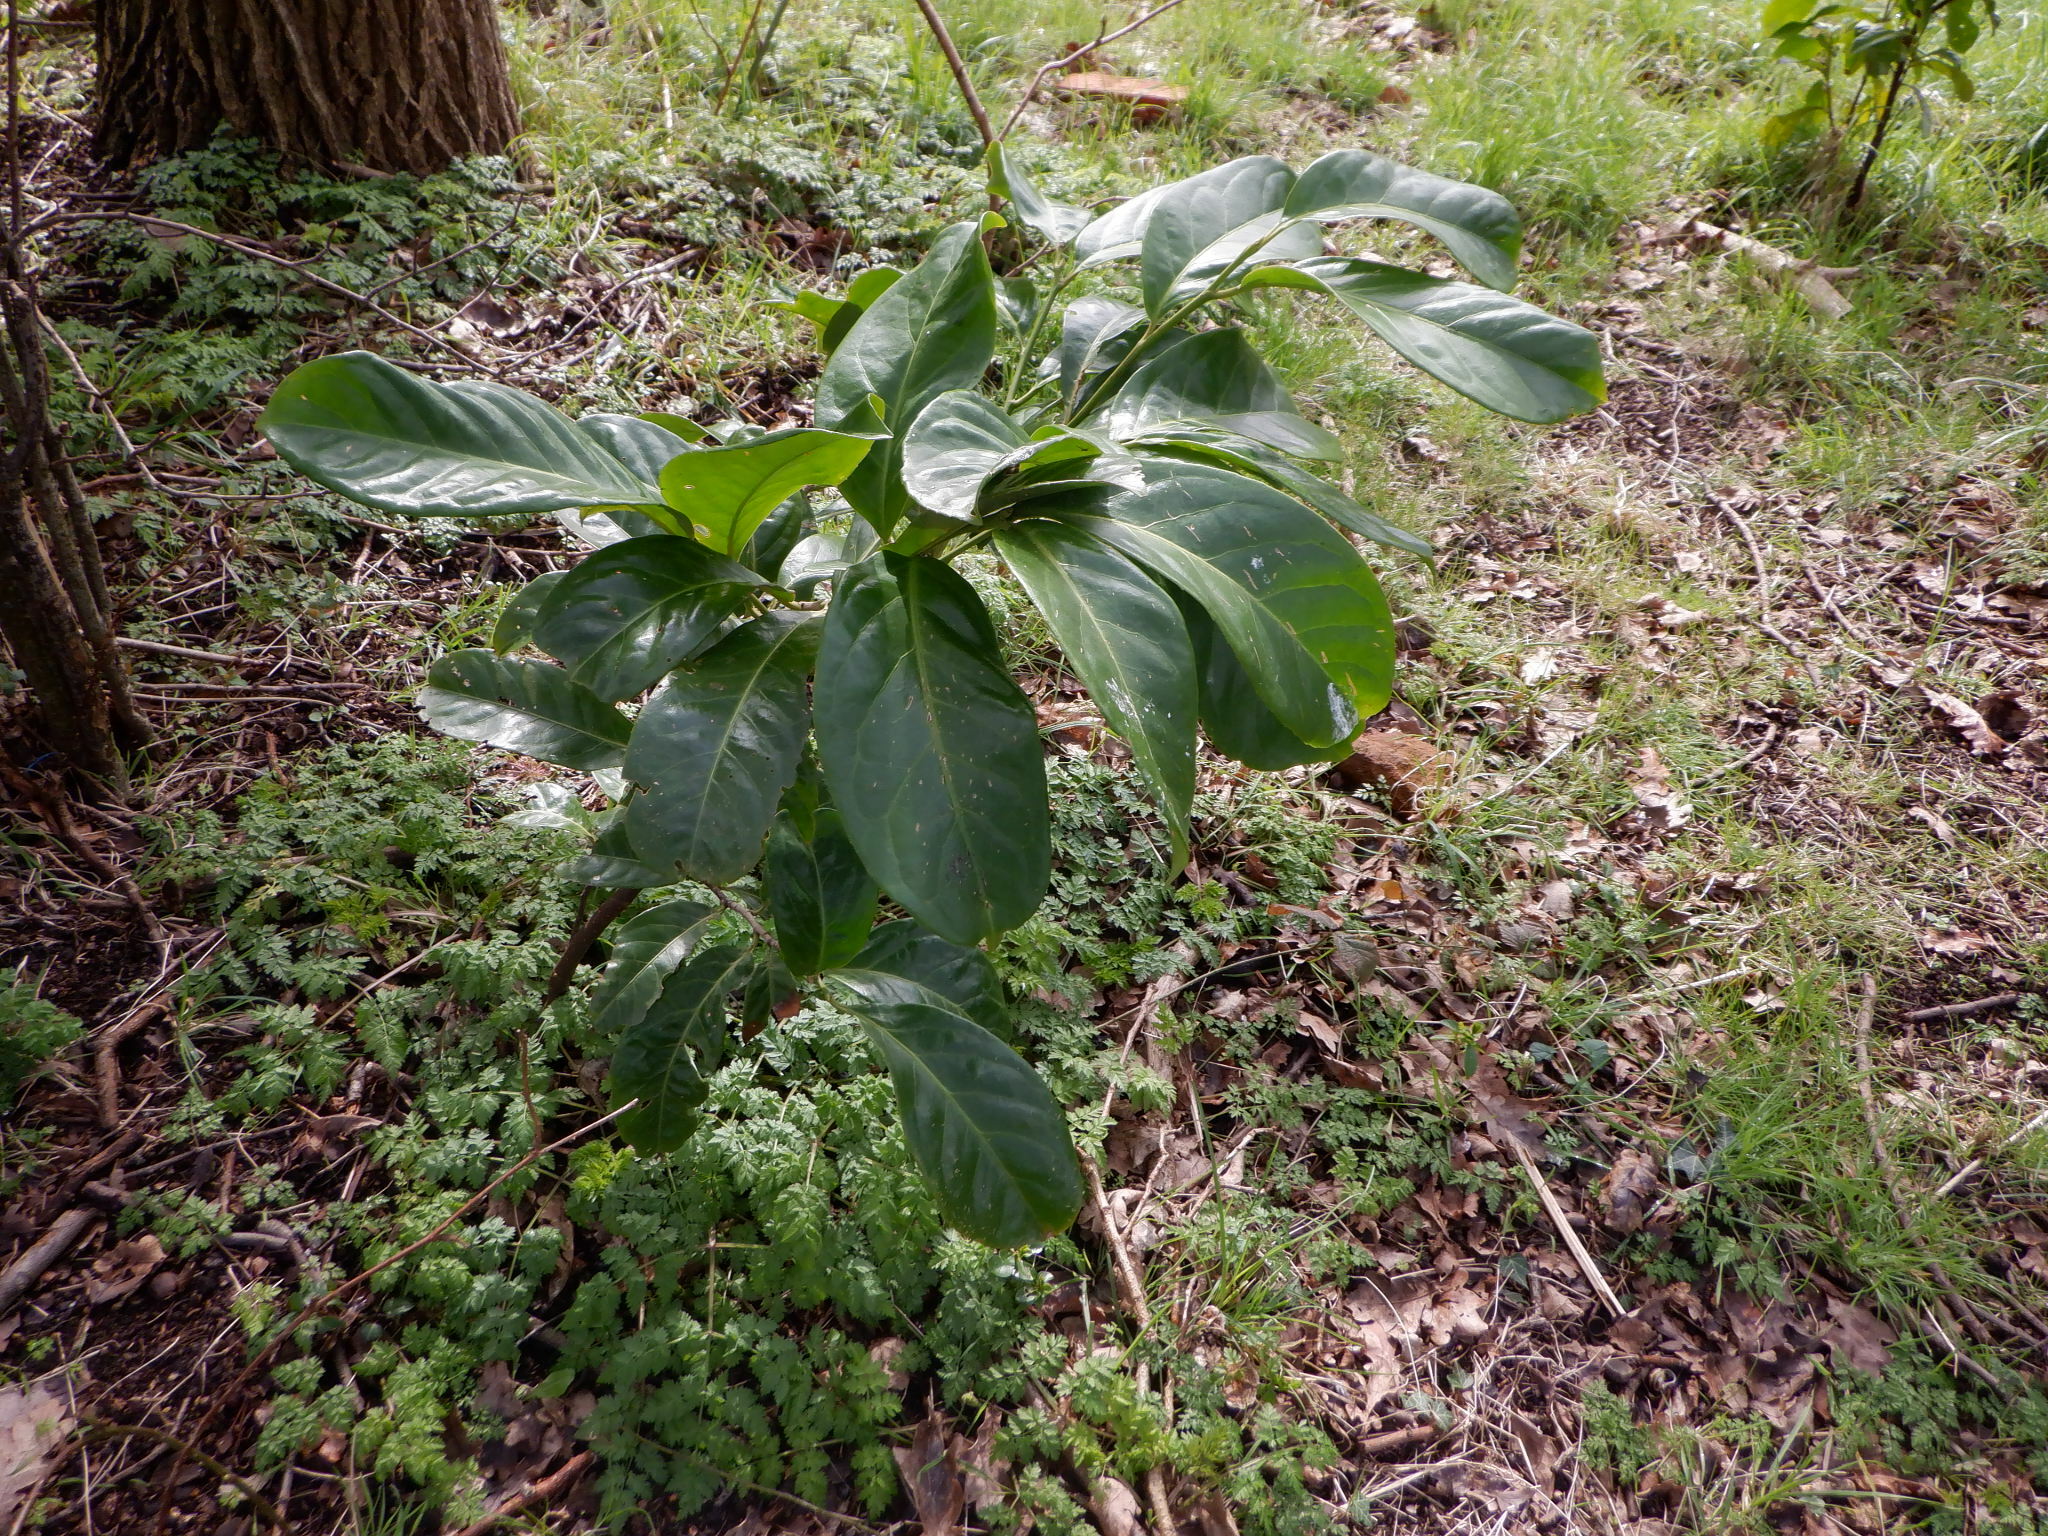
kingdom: Plantae
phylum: Tracheophyta
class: Magnoliopsida
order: Rosales
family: Rosaceae
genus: Prunus
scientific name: Prunus laurocerasus
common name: Cherry laurel
